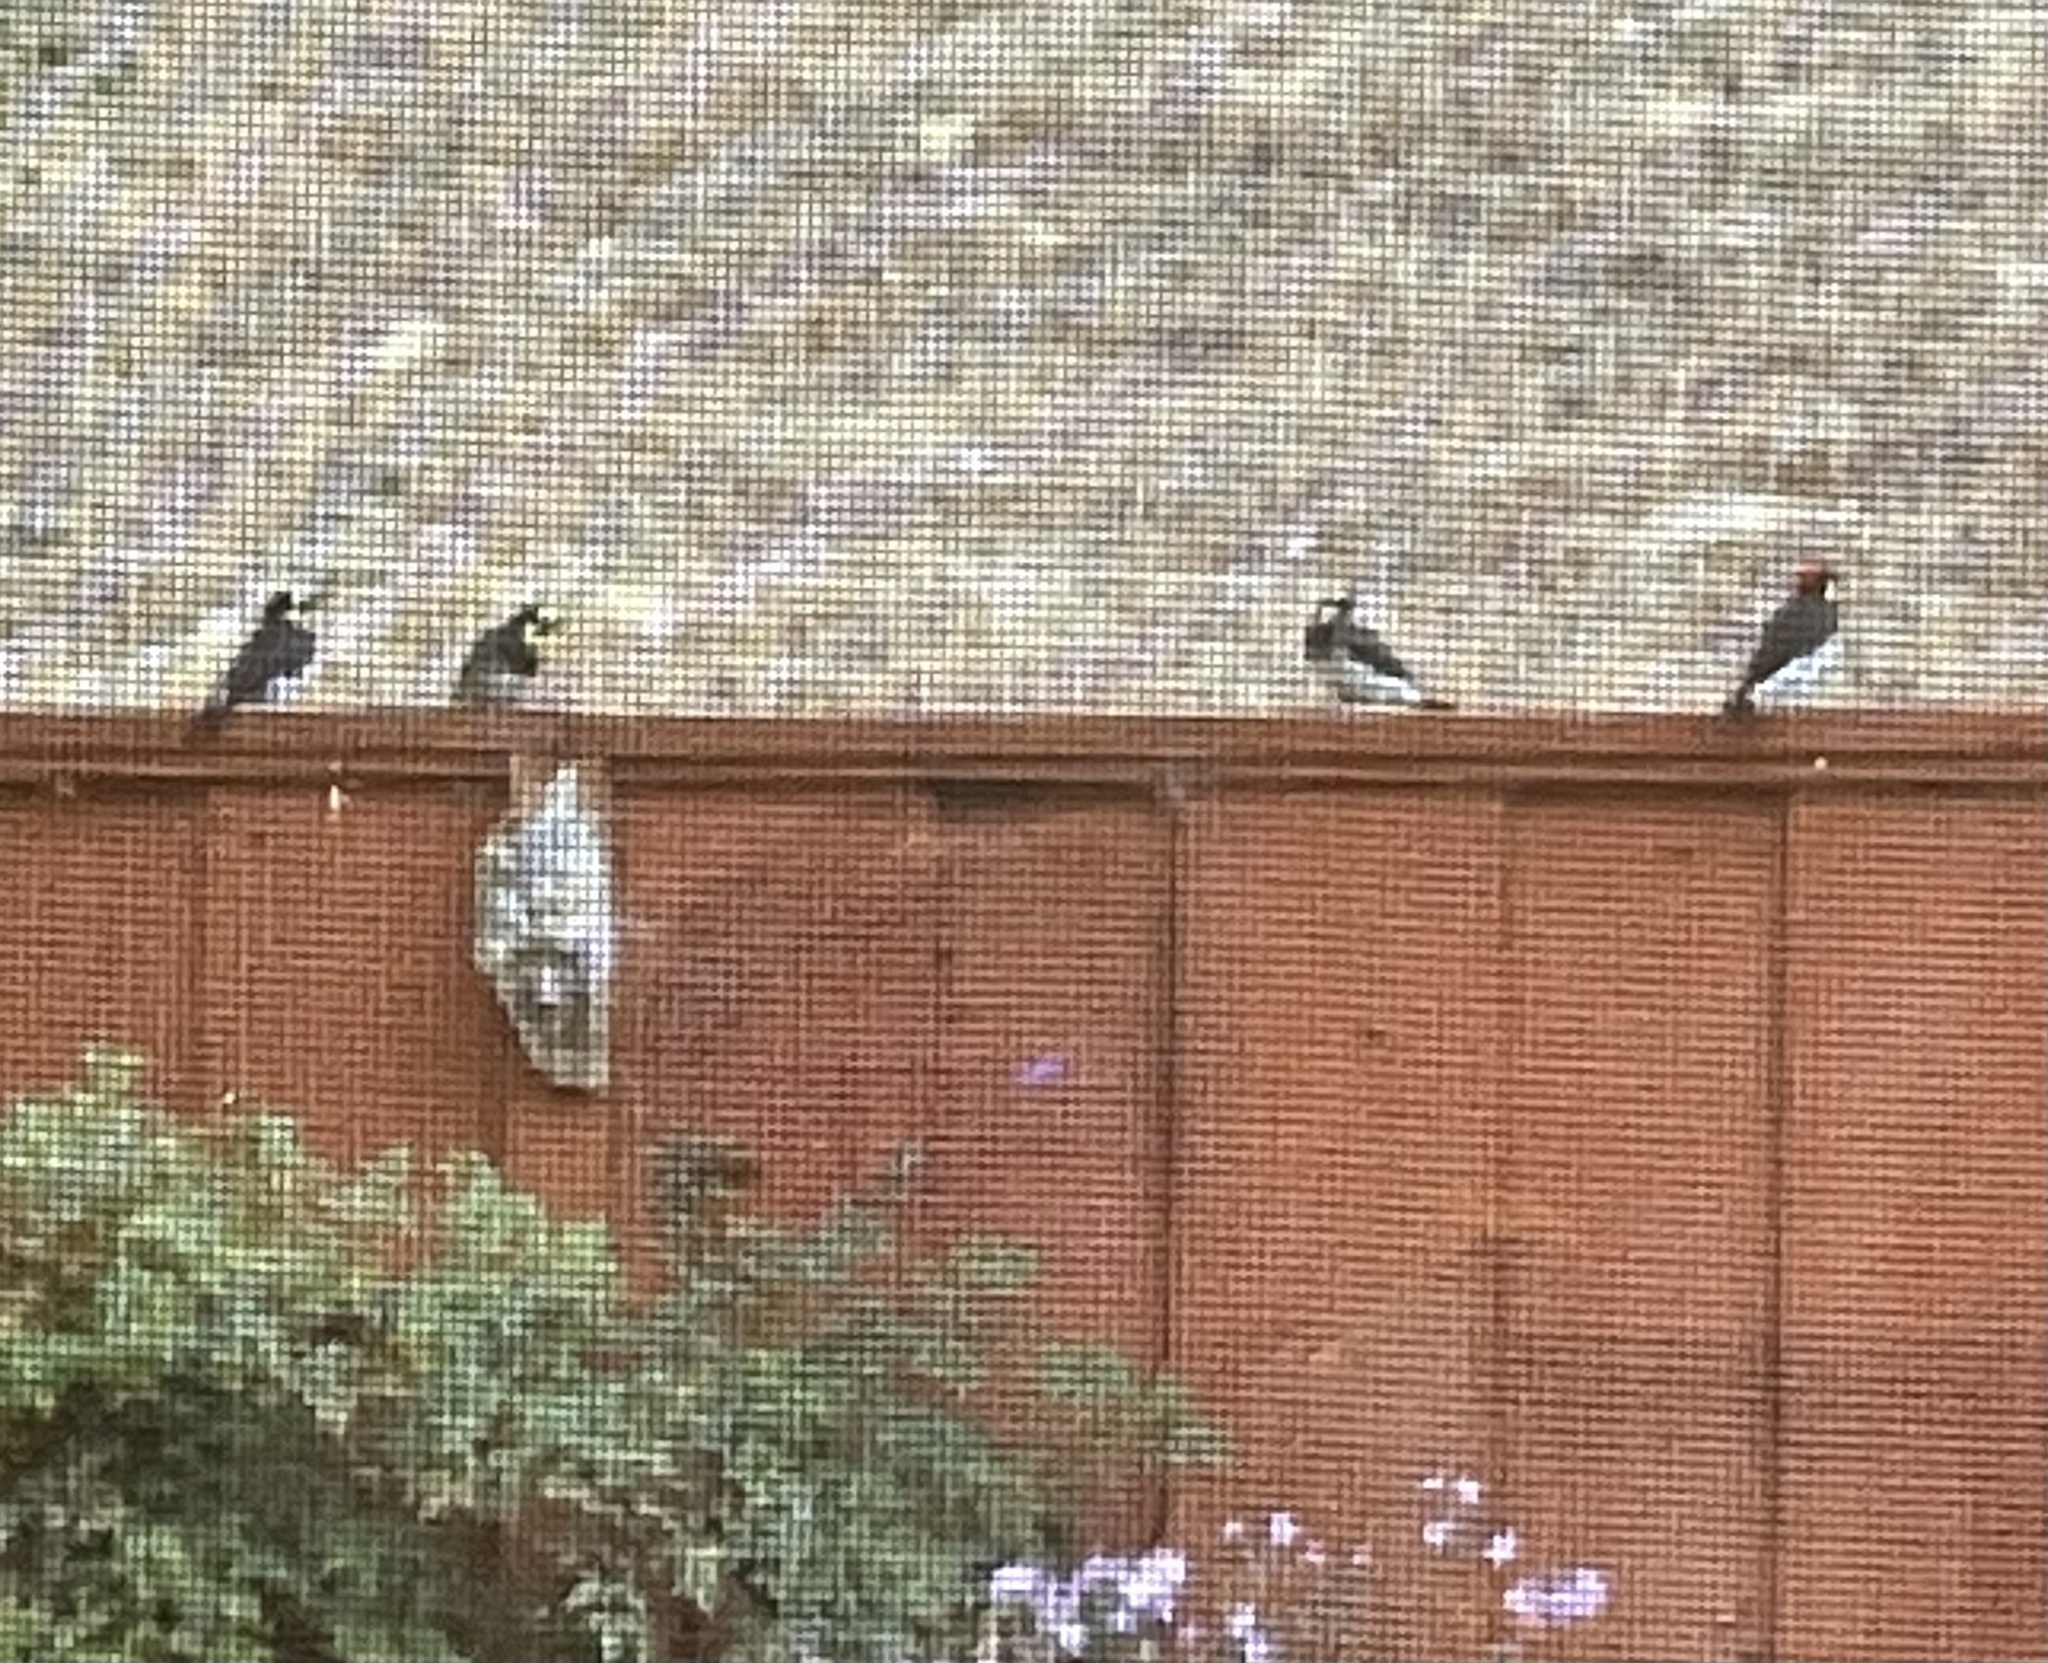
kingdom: Animalia
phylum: Chordata
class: Aves
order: Piciformes
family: Picidae
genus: Melanerpes
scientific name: Melanerpes formicivorus
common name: Acorn woodpecker
